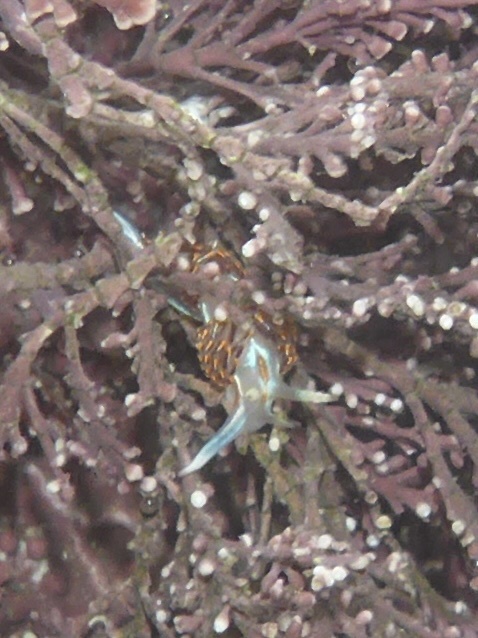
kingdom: Animalia
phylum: Mollusca
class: Gastropoda
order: Nudibranchia
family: Myrrhinidae
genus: Hermissenda
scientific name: Hermissenda crassicornis
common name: Hermissenda
